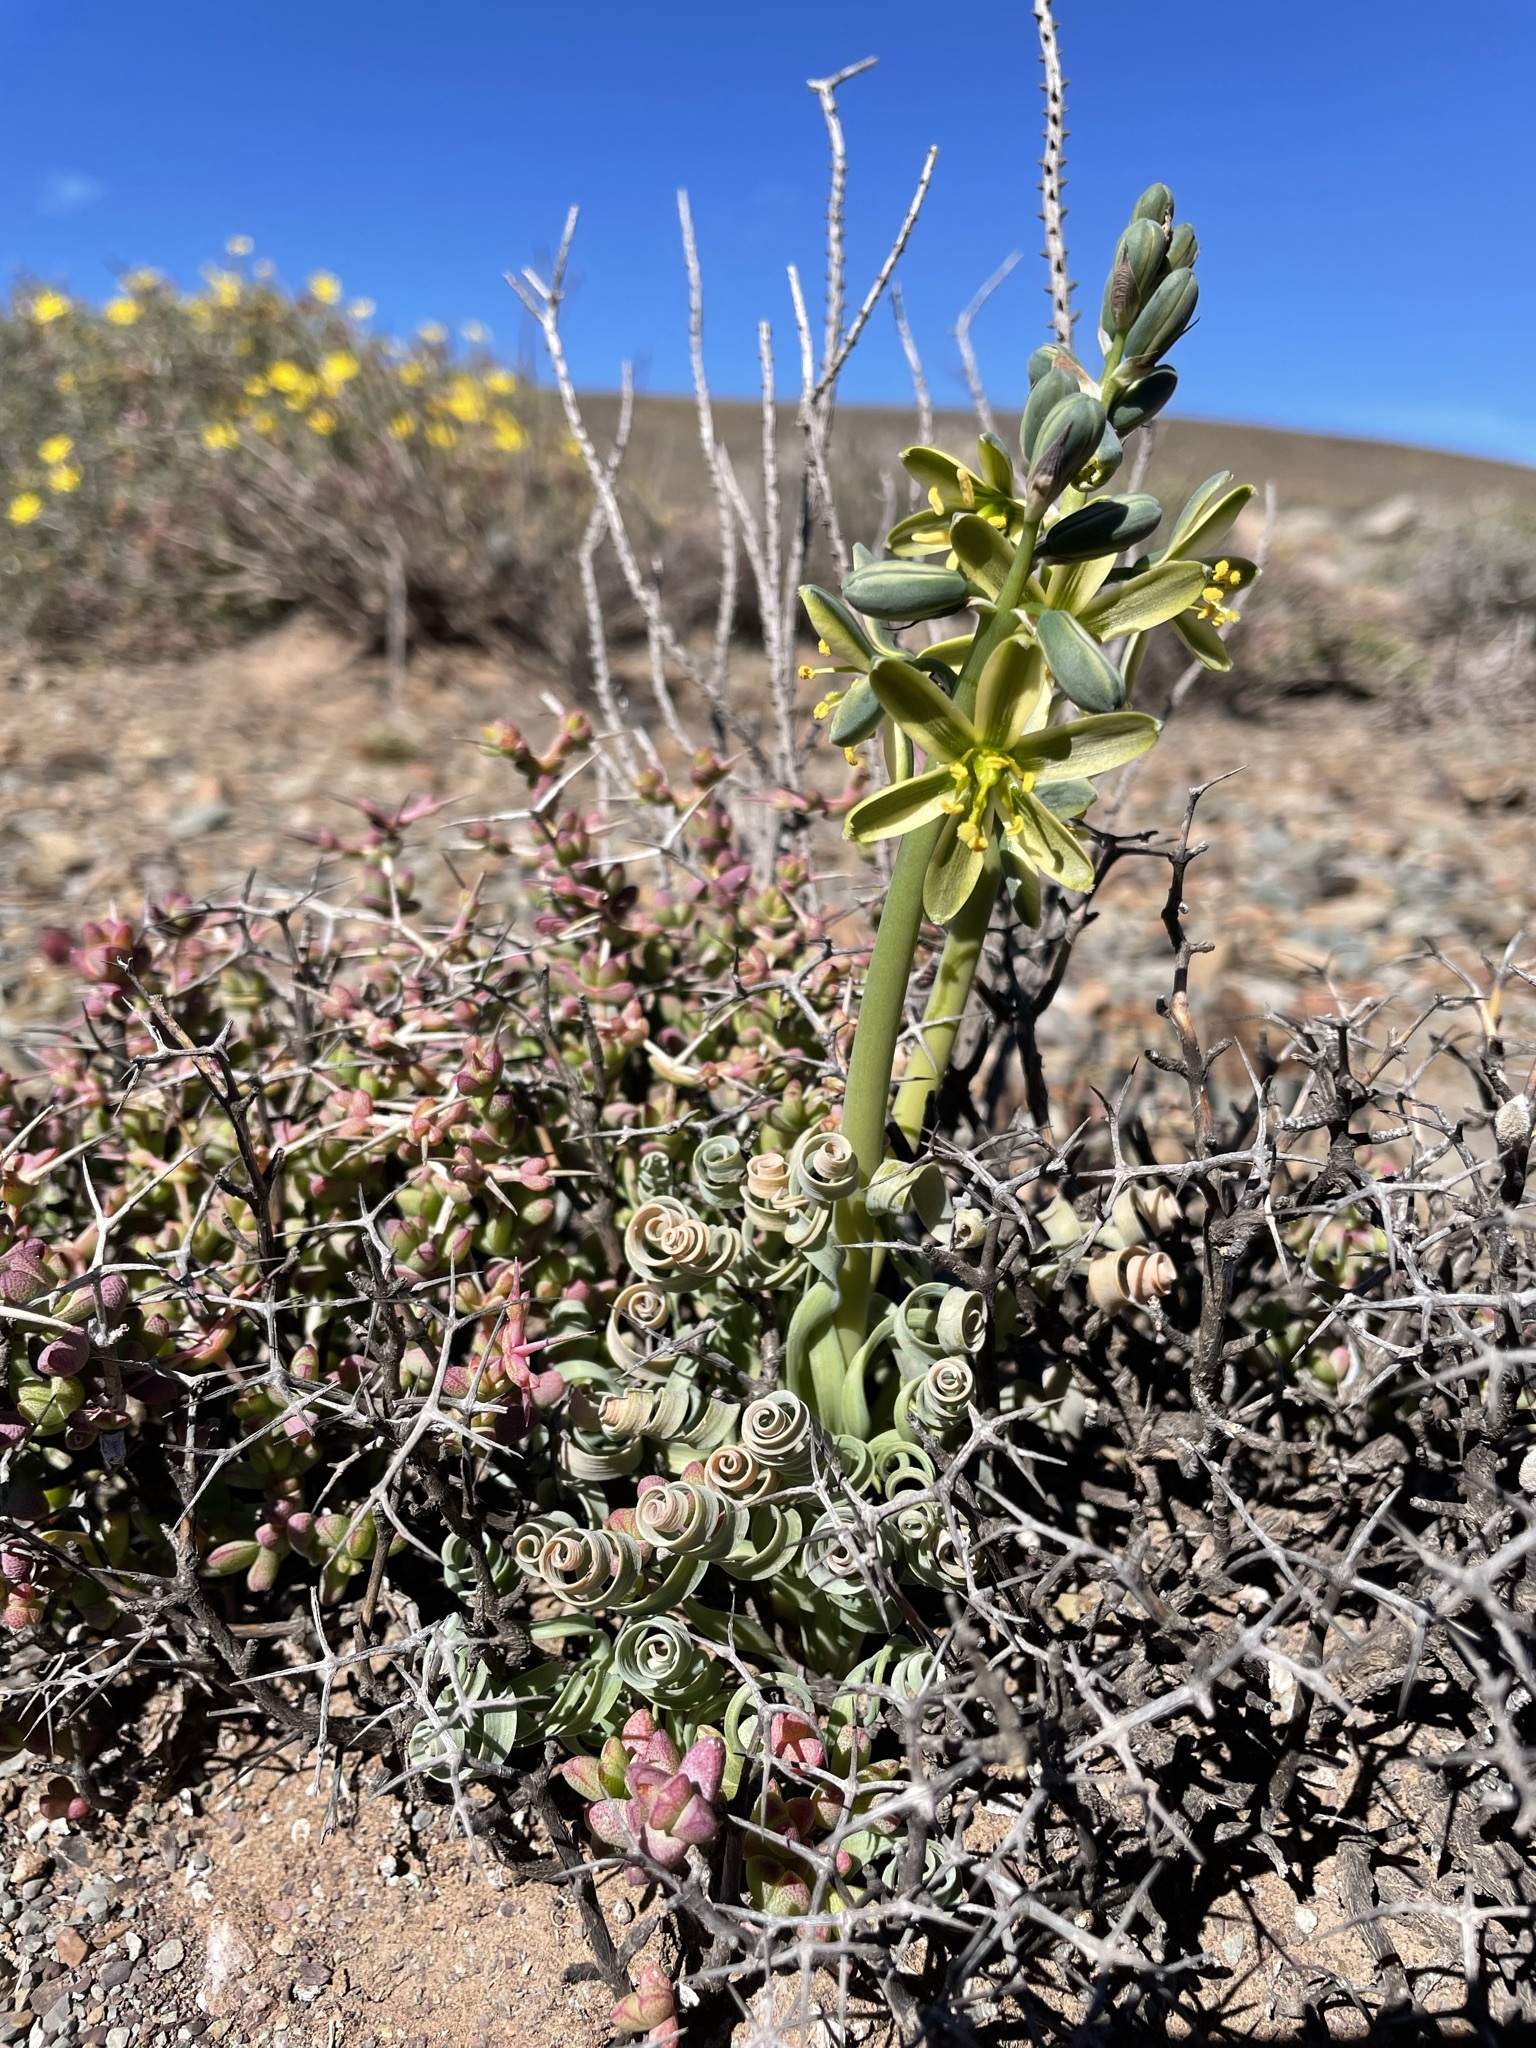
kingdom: Plantae
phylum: Tracheophyta
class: Liliopsida
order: Asparagales
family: Asparagaceae
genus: Albuca
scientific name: Albuca concordiana
